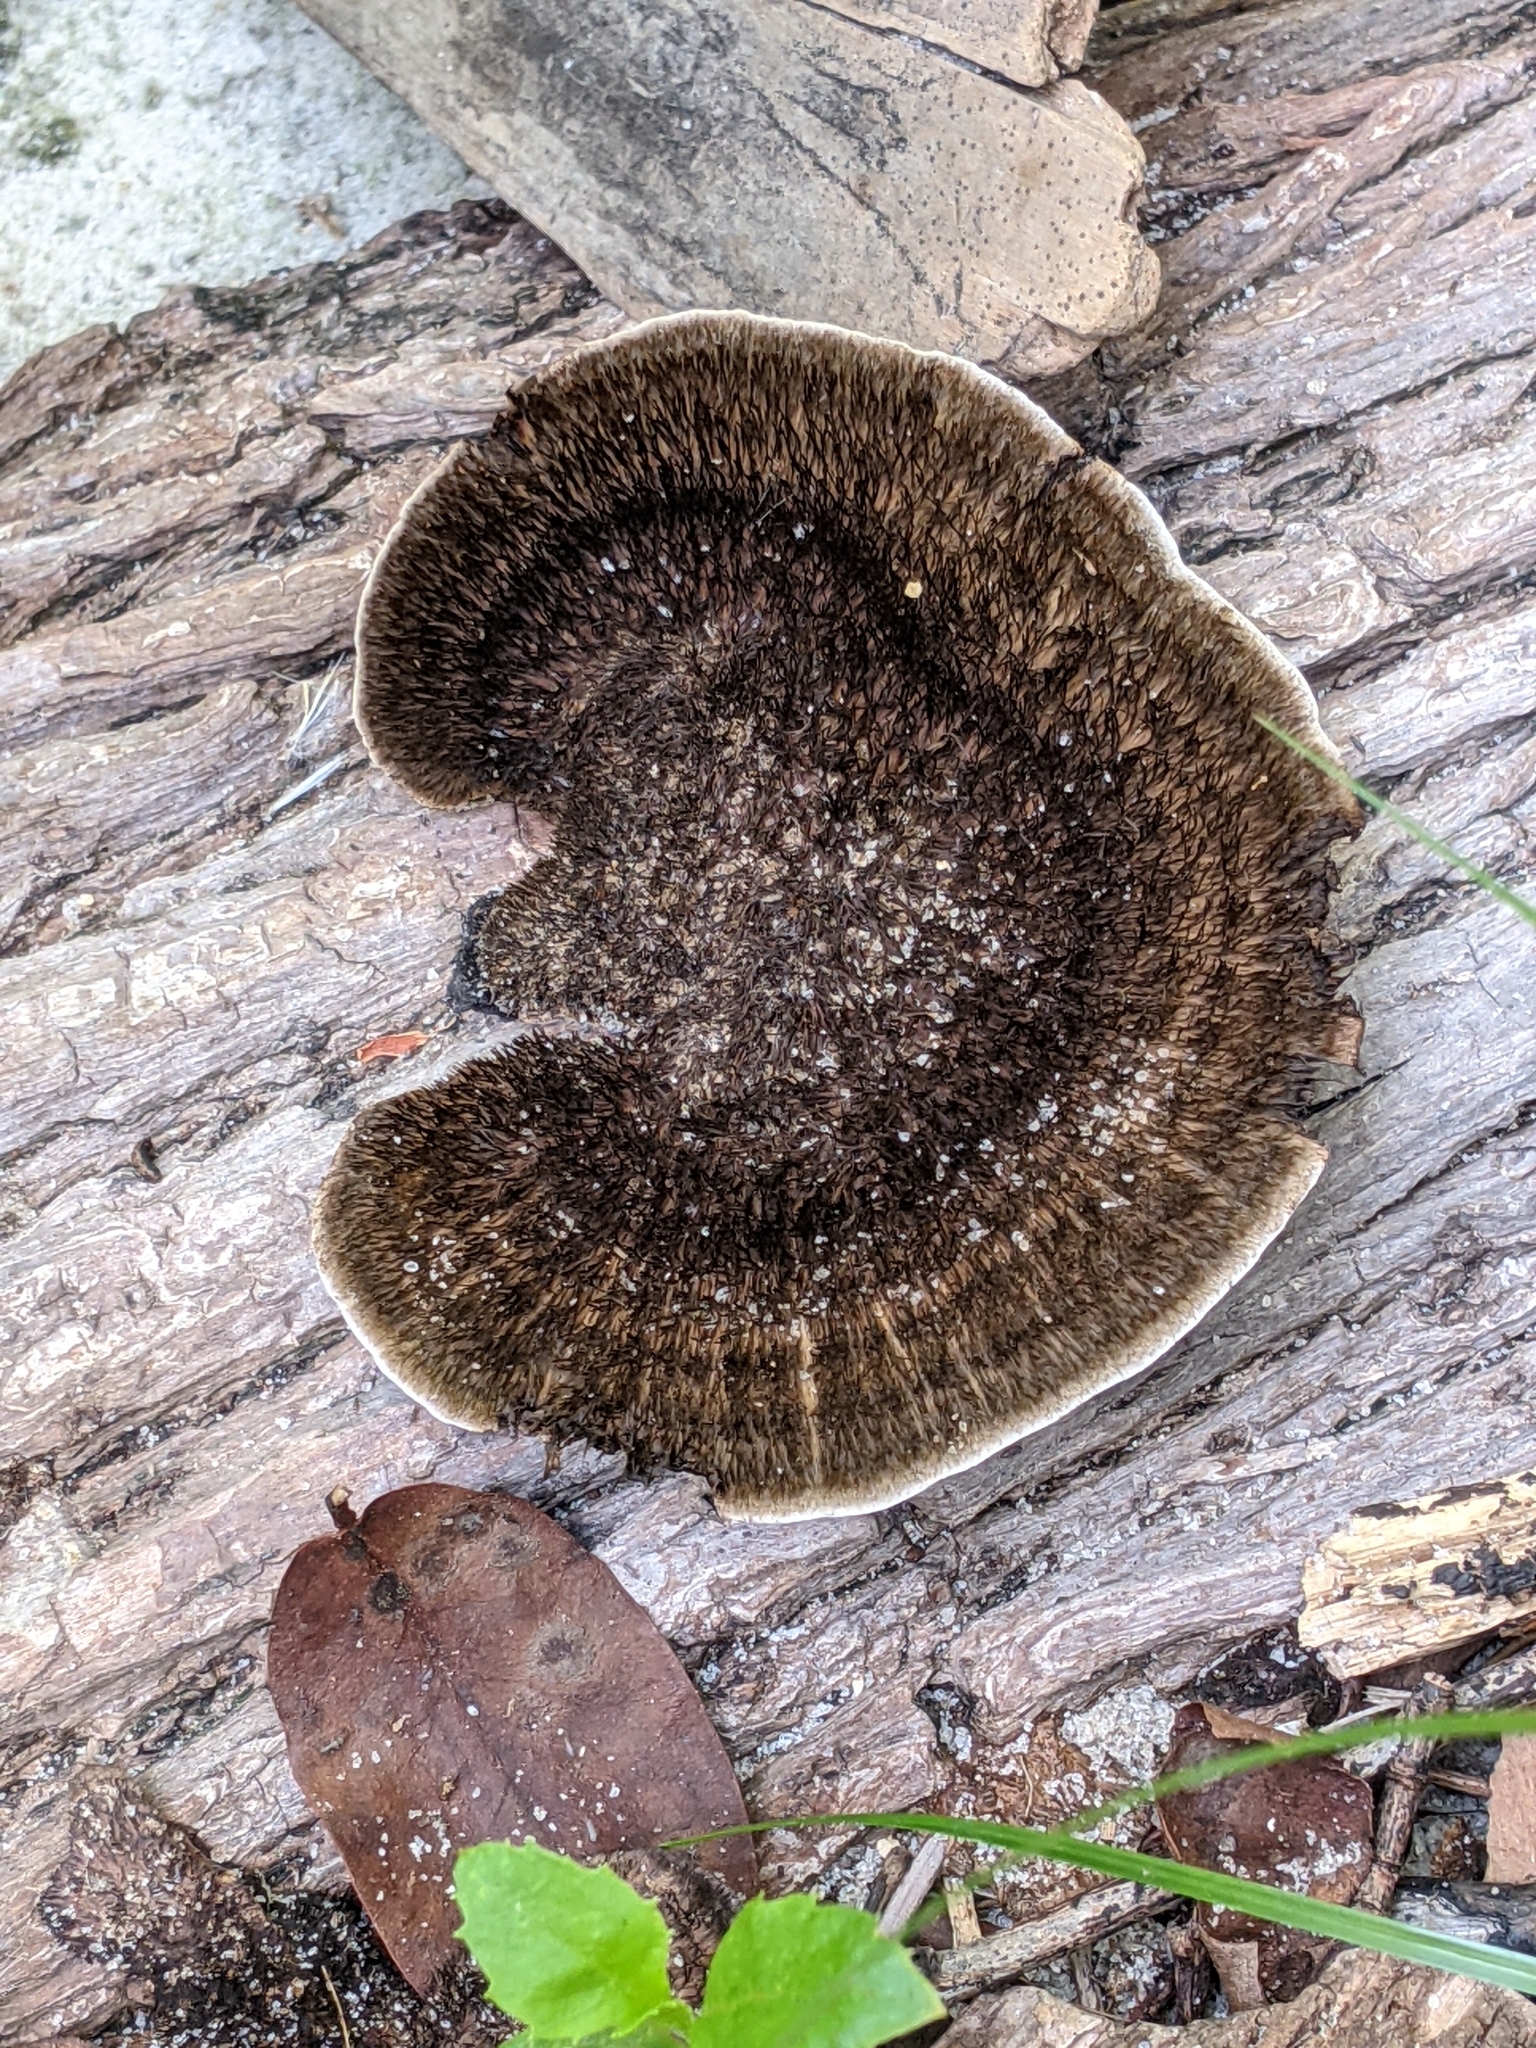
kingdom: Fungi
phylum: Basidiomycota
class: Agaricomycetes
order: Polyporales
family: Cerrenaceae
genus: Cerrena
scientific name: Cerrena hydnoides
